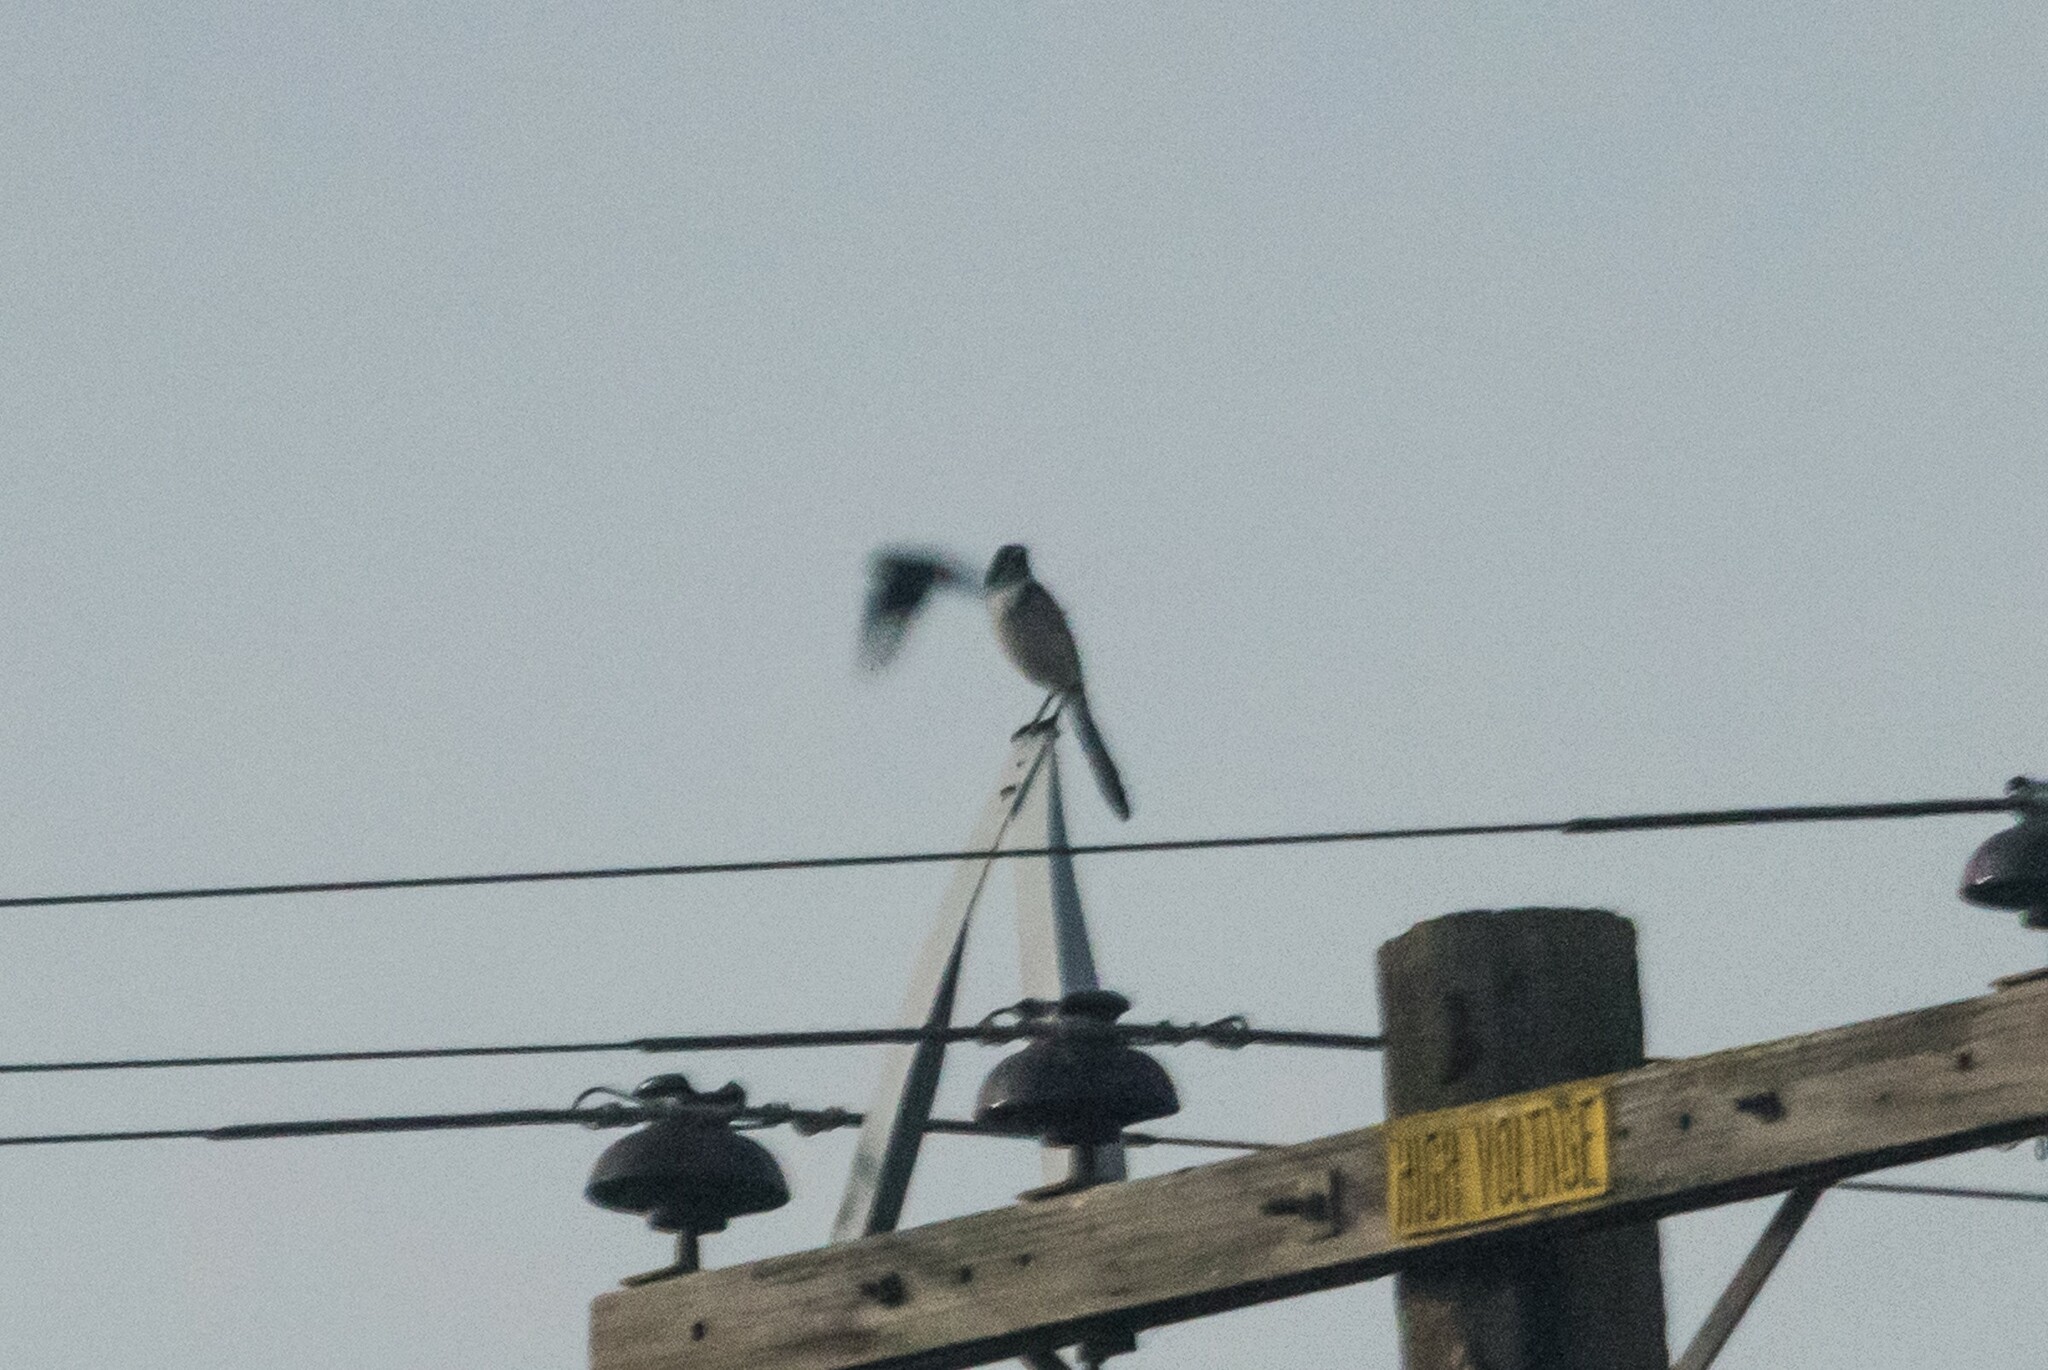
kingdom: Animalia
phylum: Chordata
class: Aves
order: Passeriformes
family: Corvidae
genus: Aphelocoma
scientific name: Aphelocoma californica
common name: California scrub-jay
